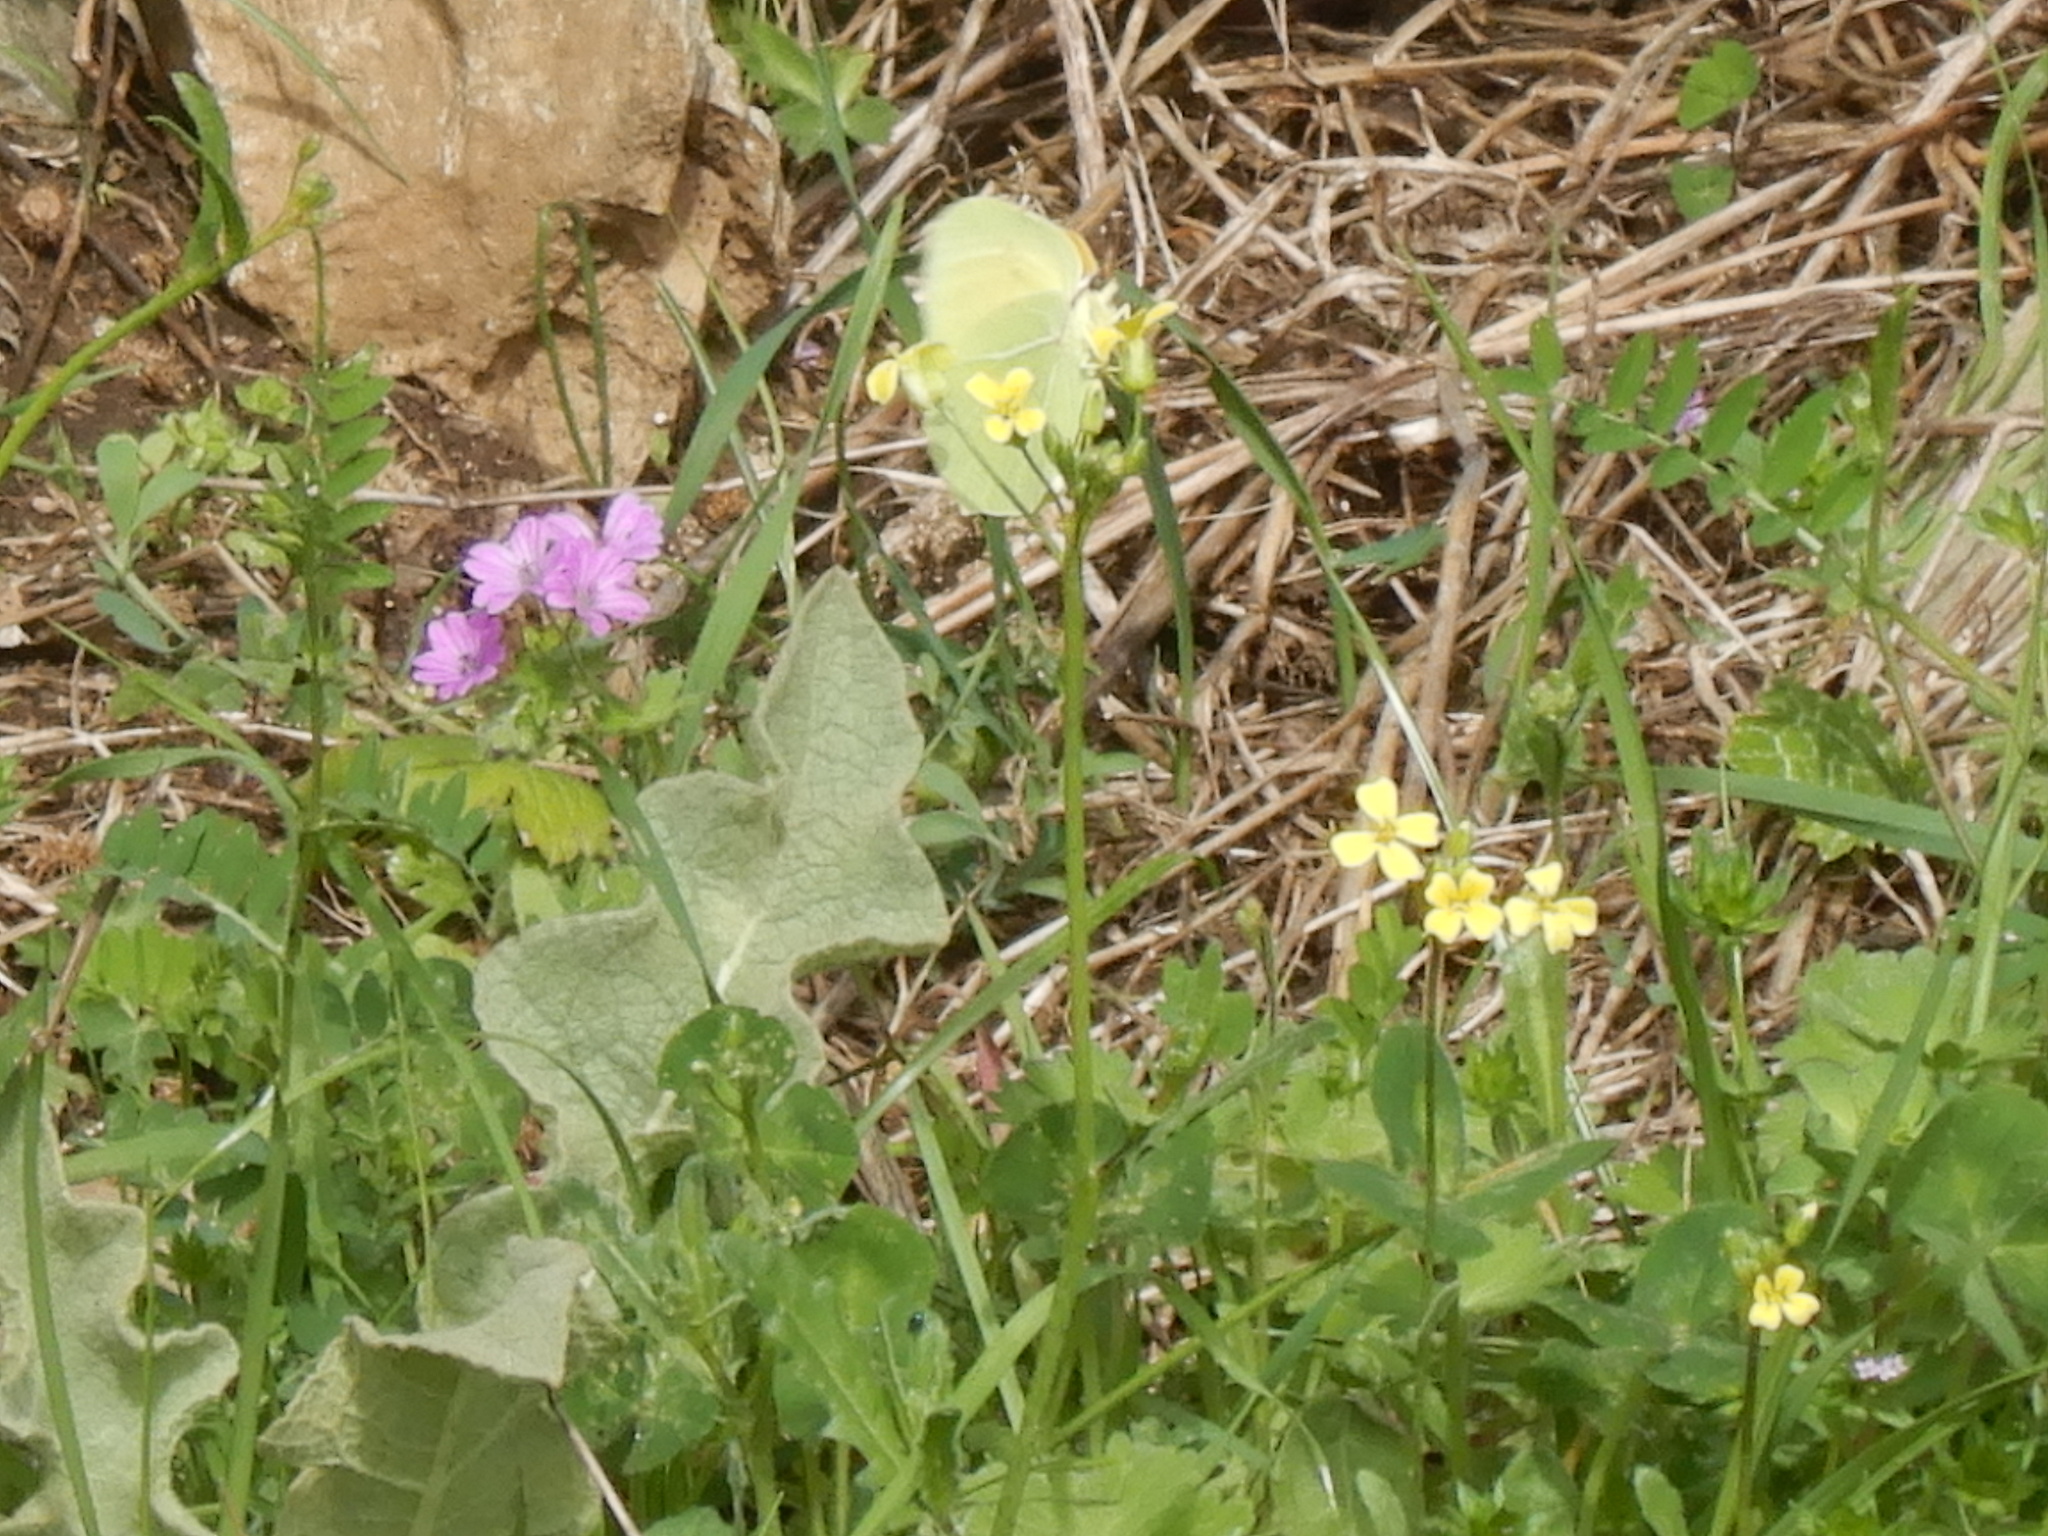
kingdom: Animalia
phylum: Arthropoda
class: Insecta
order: Lepidoptera
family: Pieridae
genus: Gonepteryx
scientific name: Gonepteryx cleopatra
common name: Cleopatra
